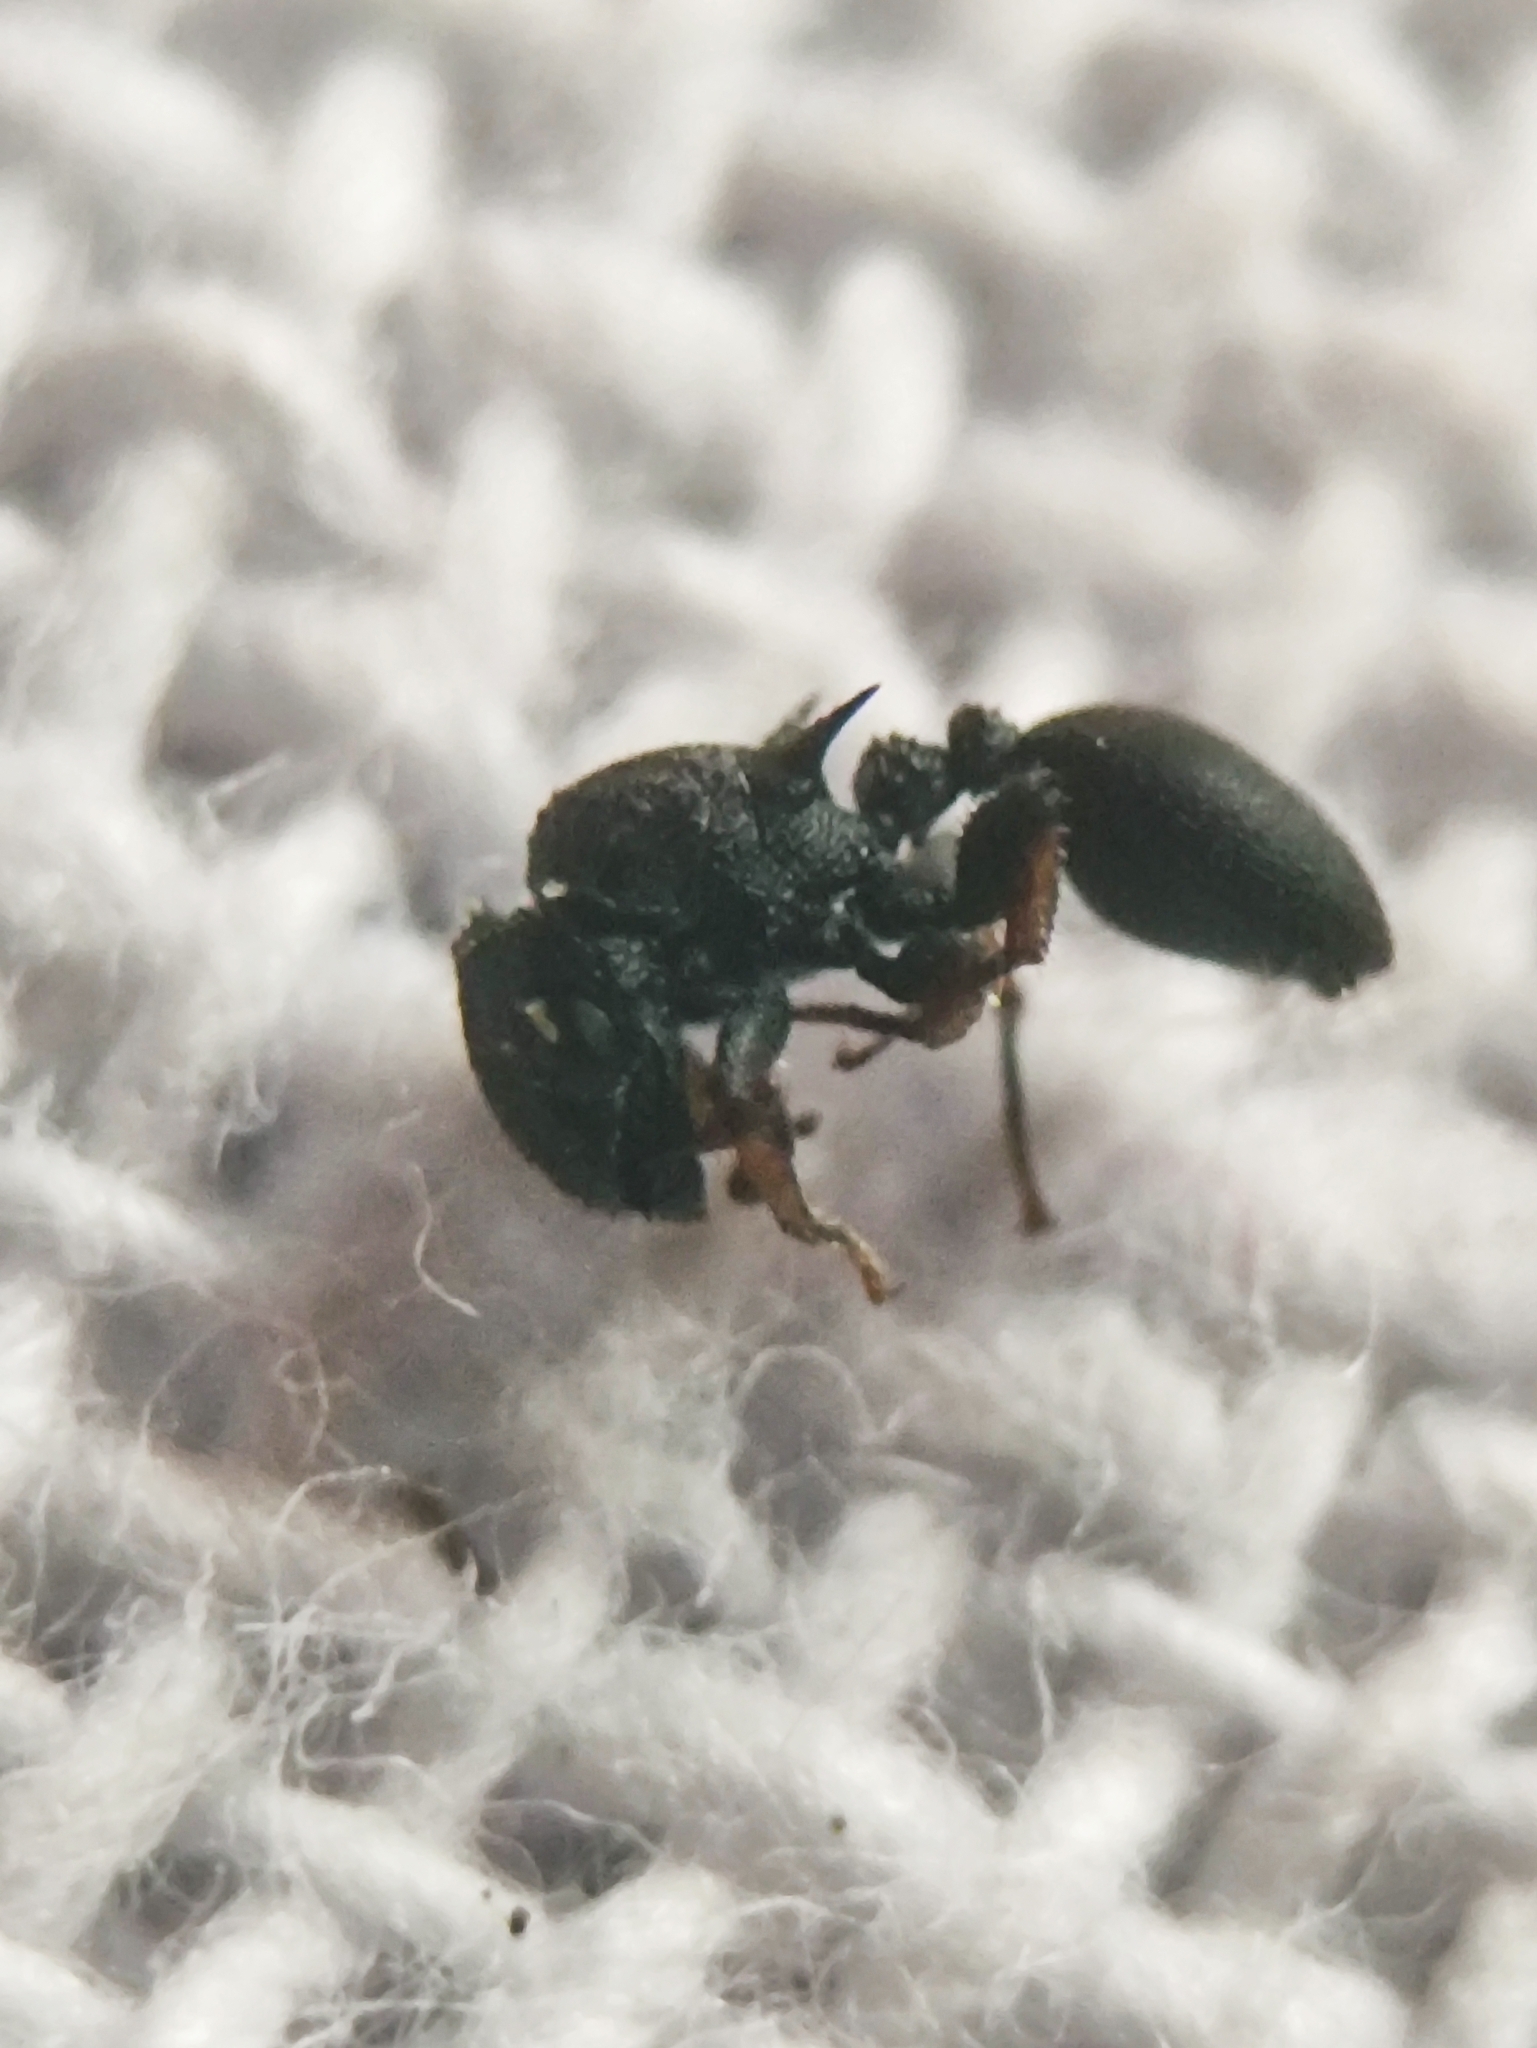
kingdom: Animalia
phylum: Arthropoda
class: Insecta
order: Hymenoptera
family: Formicidae
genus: Cataulacus
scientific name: Cataulacus taprobanae
